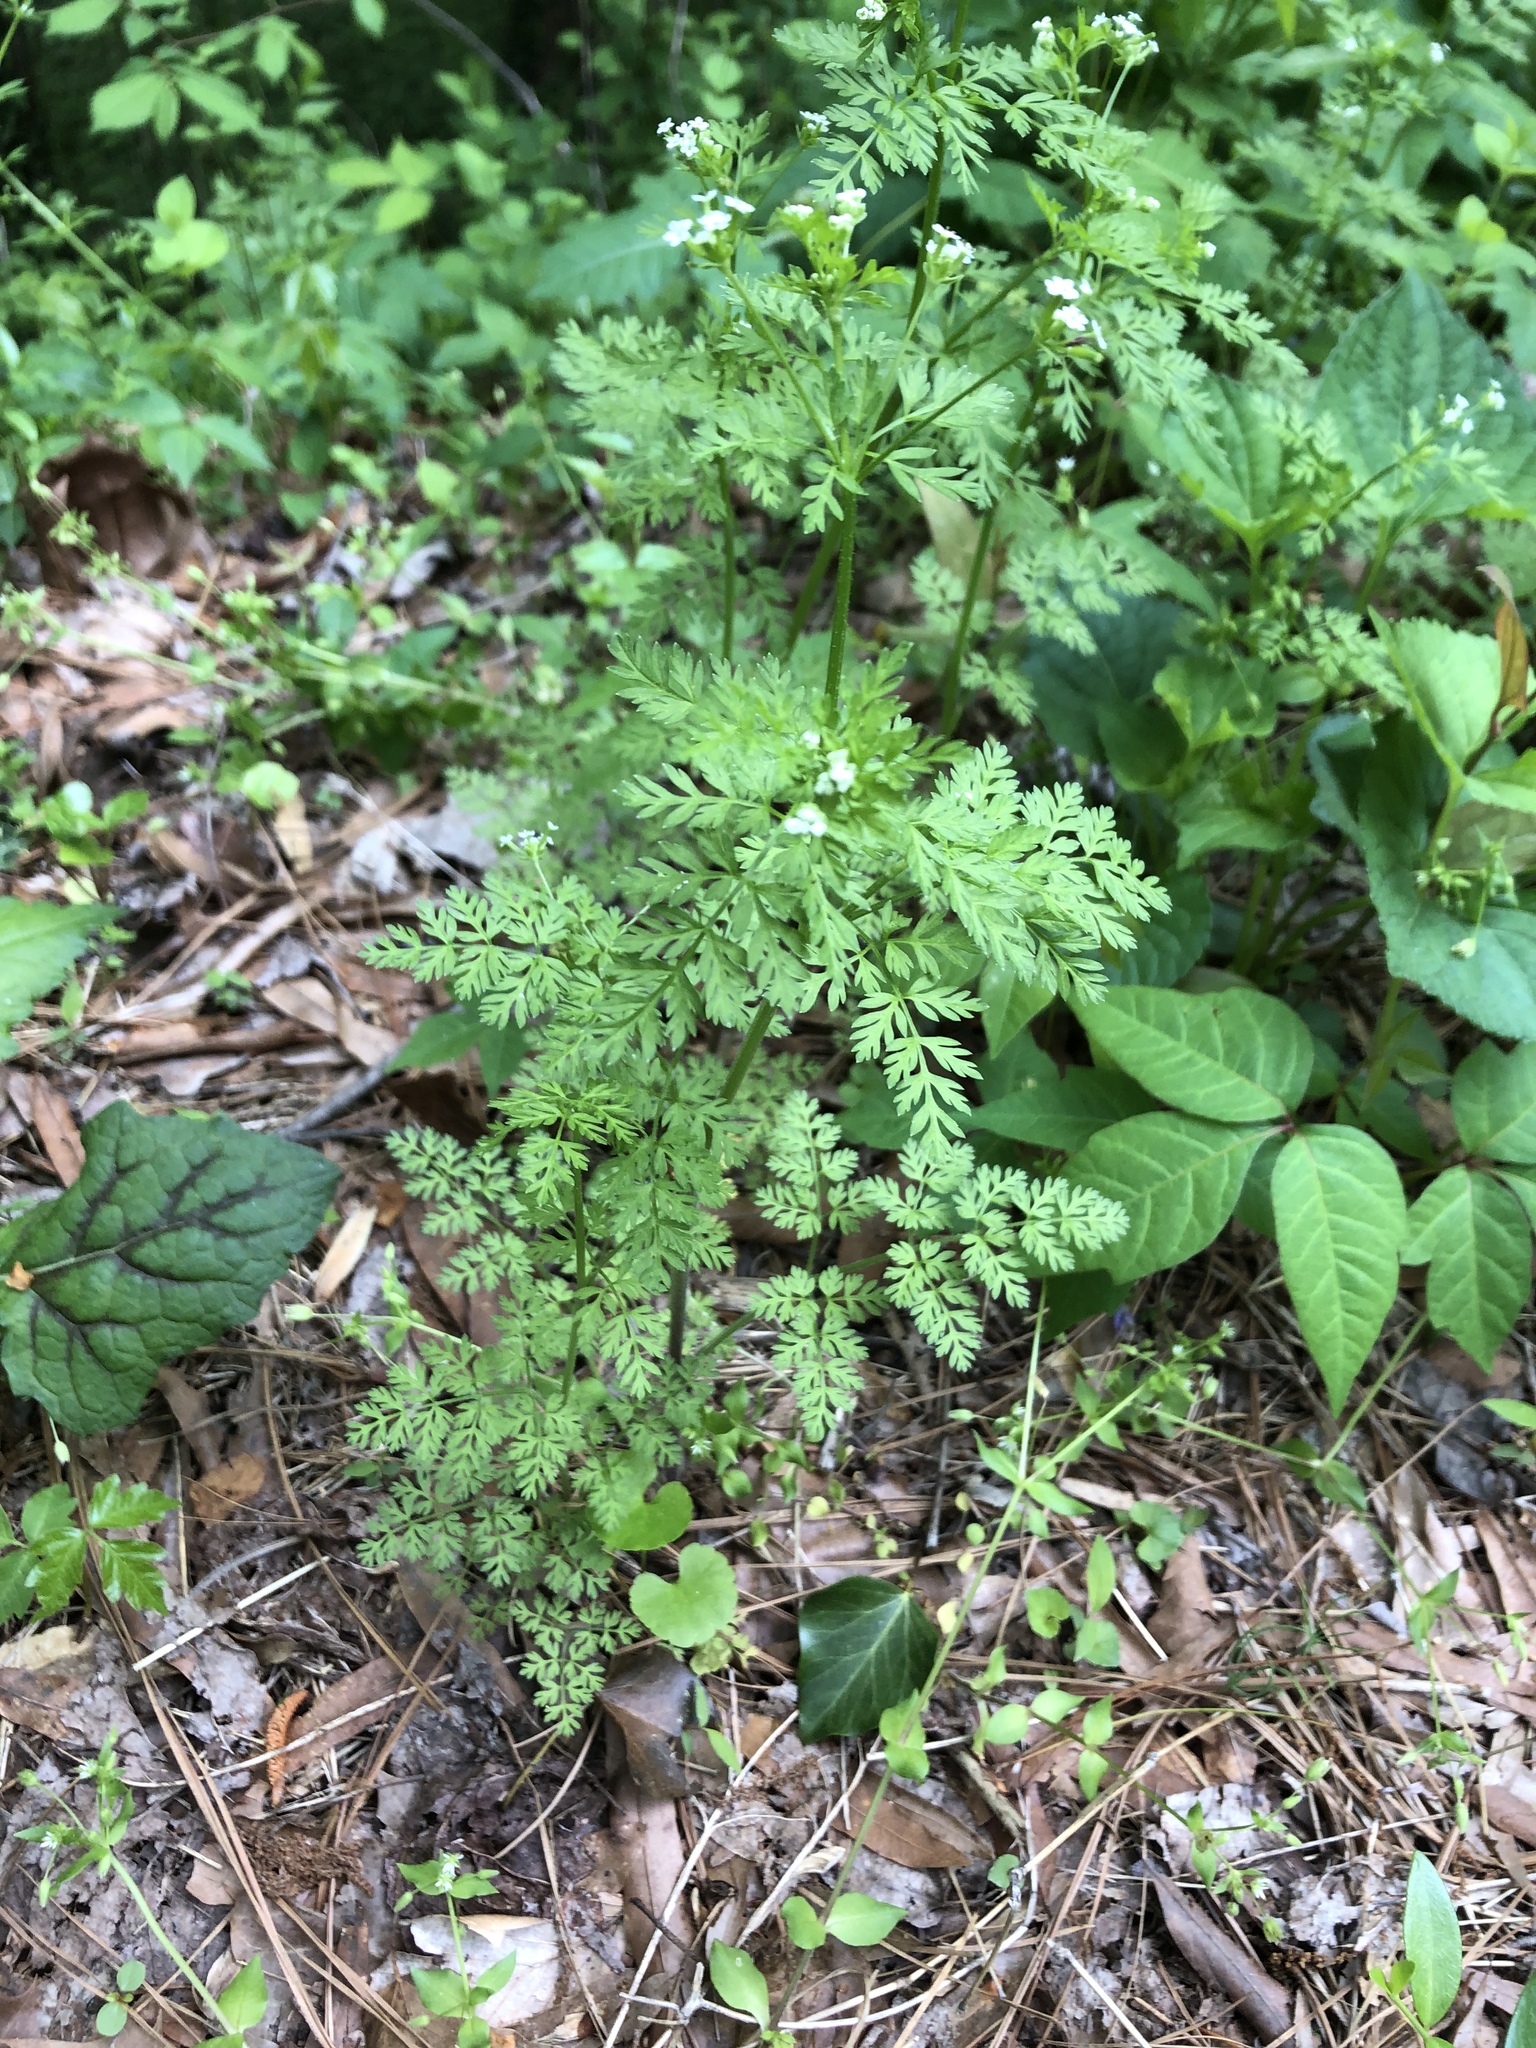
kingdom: Plantae
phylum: Tracheophyta
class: Magnoliopsida
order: Apiales
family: Apiaceae
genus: Chaerophyllum
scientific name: Chaerophyllum tainturieri
